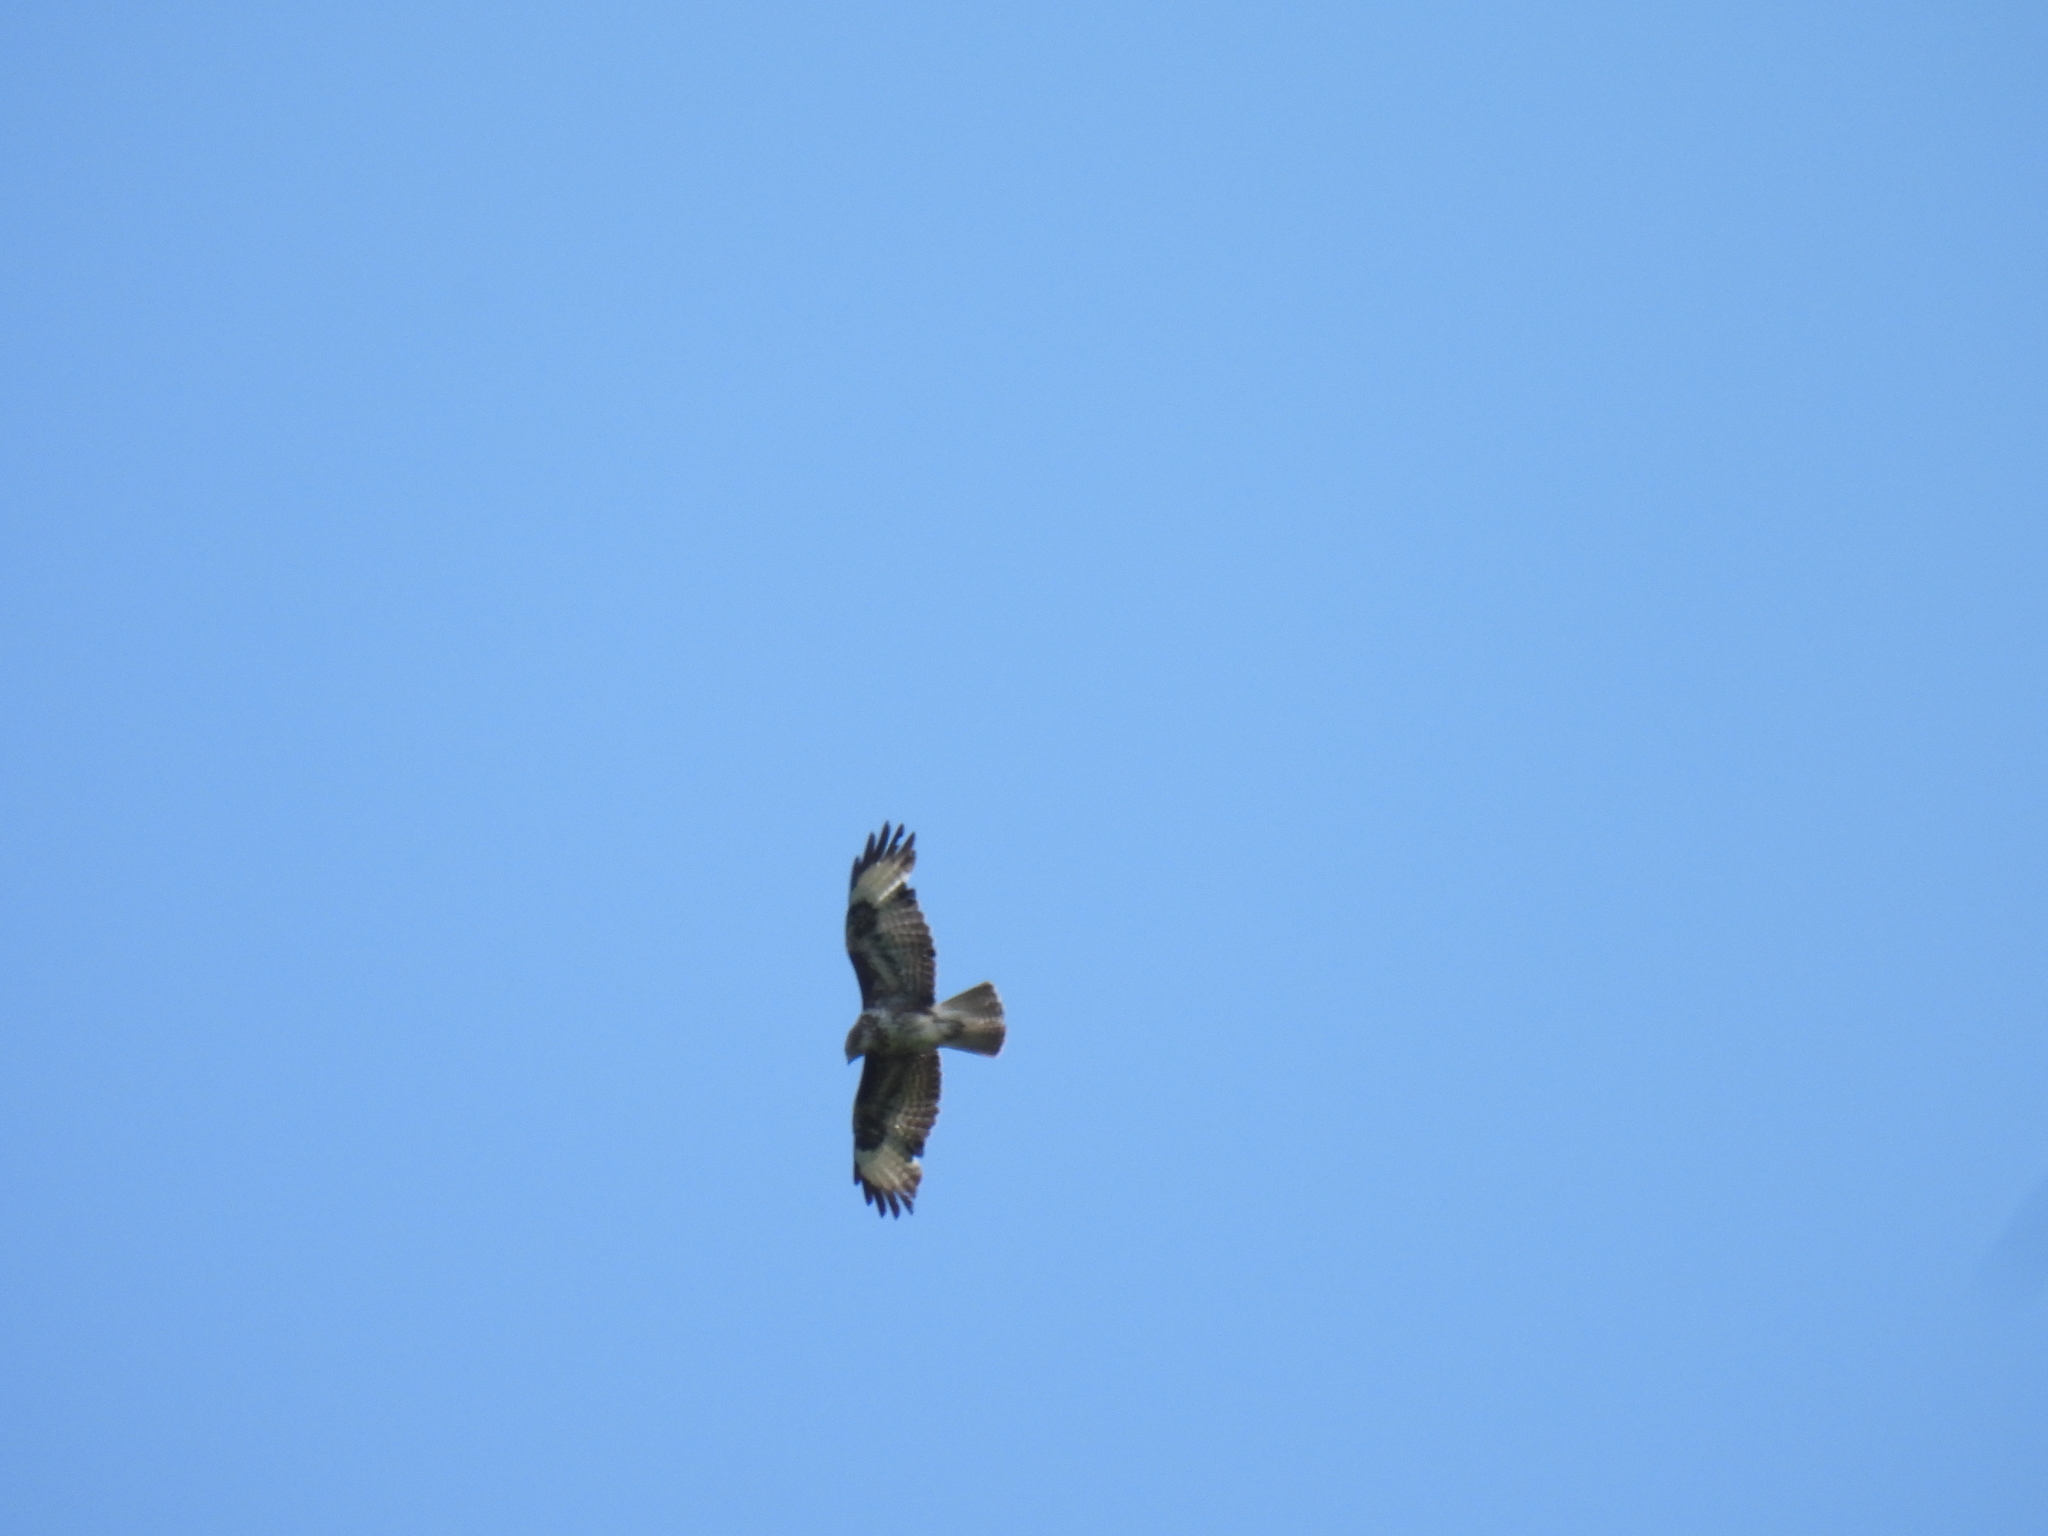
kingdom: Animalia
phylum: Chordata
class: Aves
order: Accipitriformes
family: Accipitridae
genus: Buteo
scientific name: Buteo buteo
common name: Common buzzard
